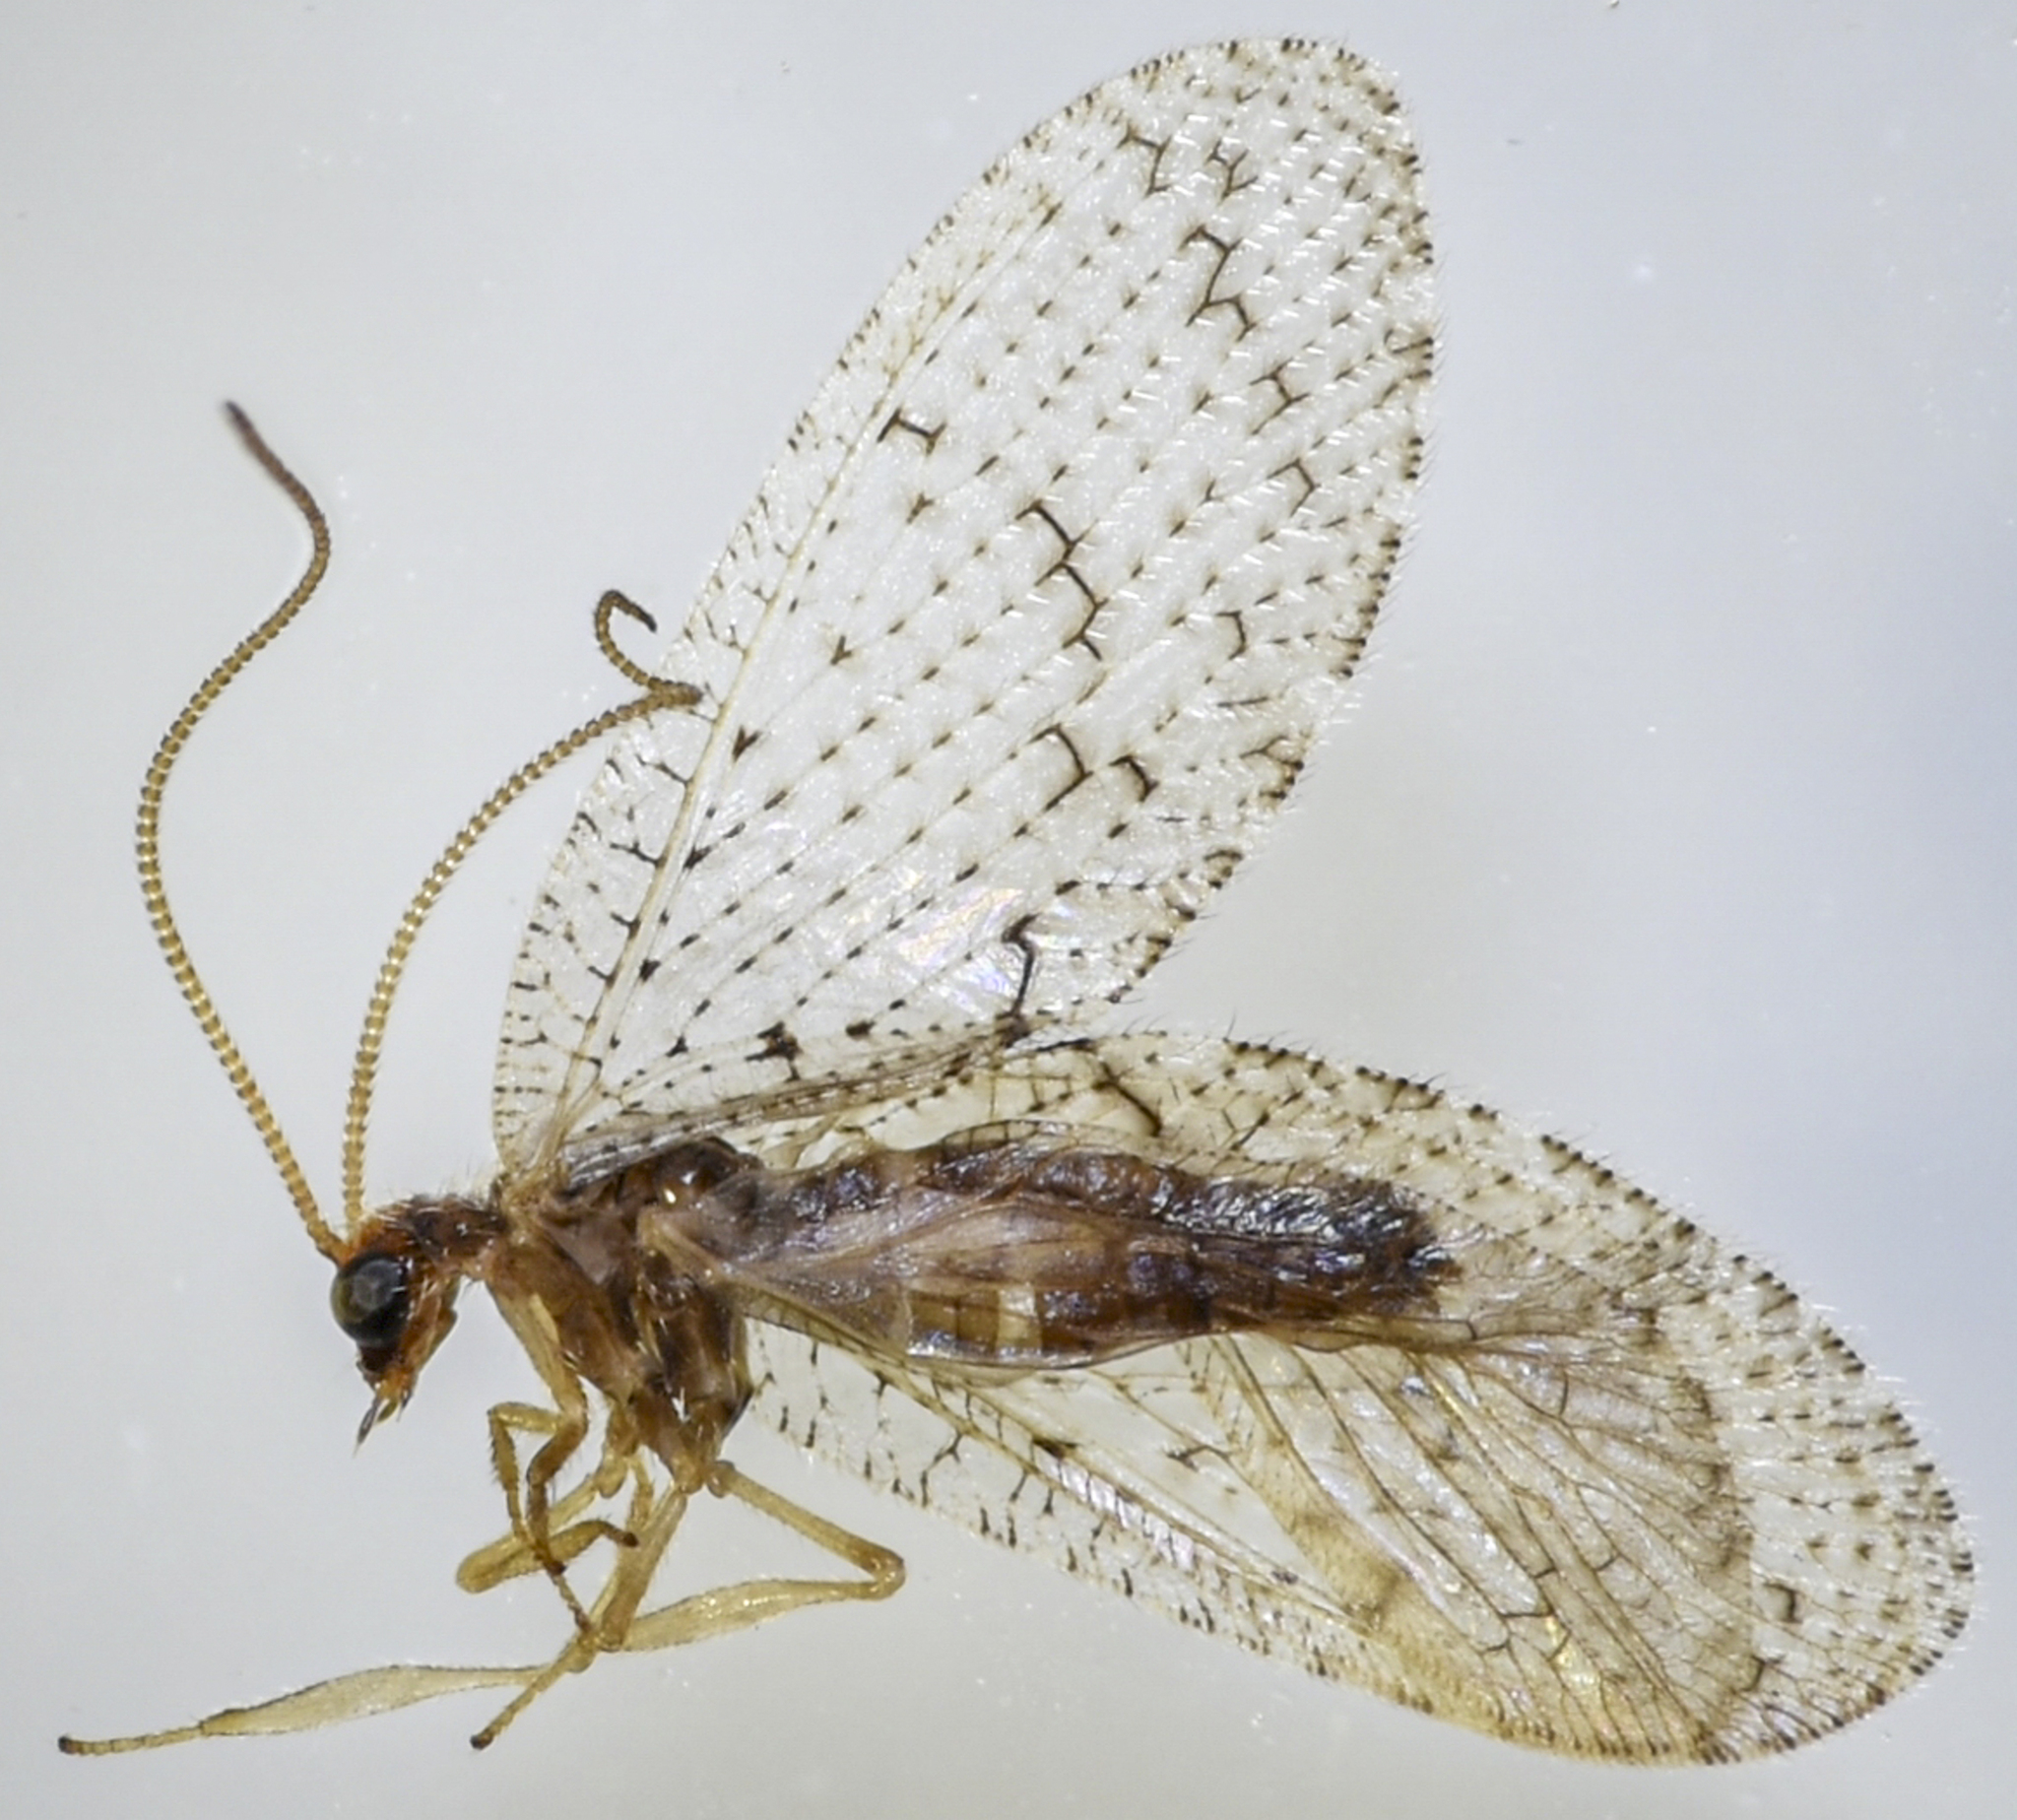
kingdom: Animalia
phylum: Arthropoda
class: Insecta
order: Neuroptera
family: Hemerobiidae
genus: Hemerobius
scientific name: Hemerobius stigma
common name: Brown pine lacewing
